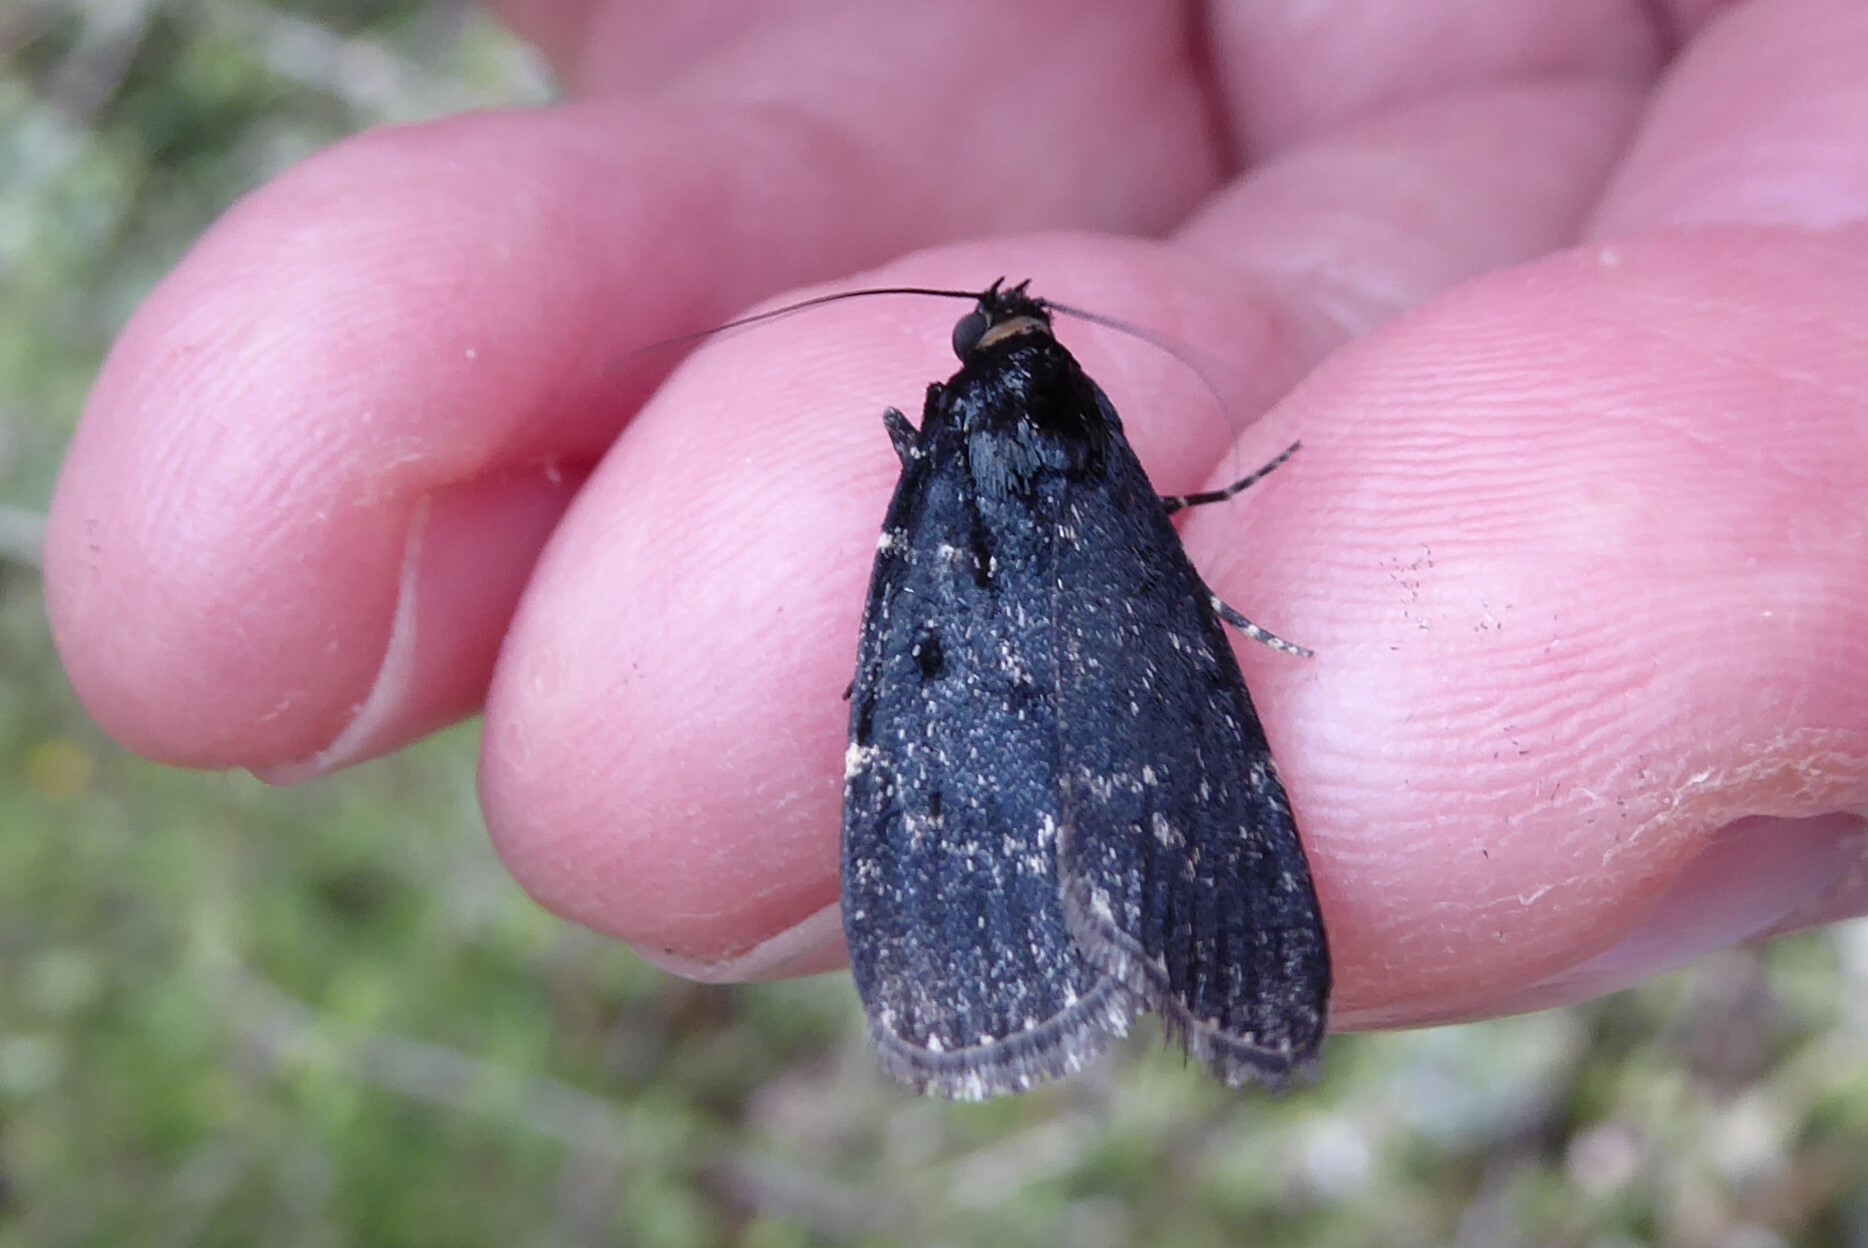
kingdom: Animalia
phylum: Arthropoda
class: Insecta
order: Lepidoptera
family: Pyralidae
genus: Stericta
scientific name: Stericta carbonalis
